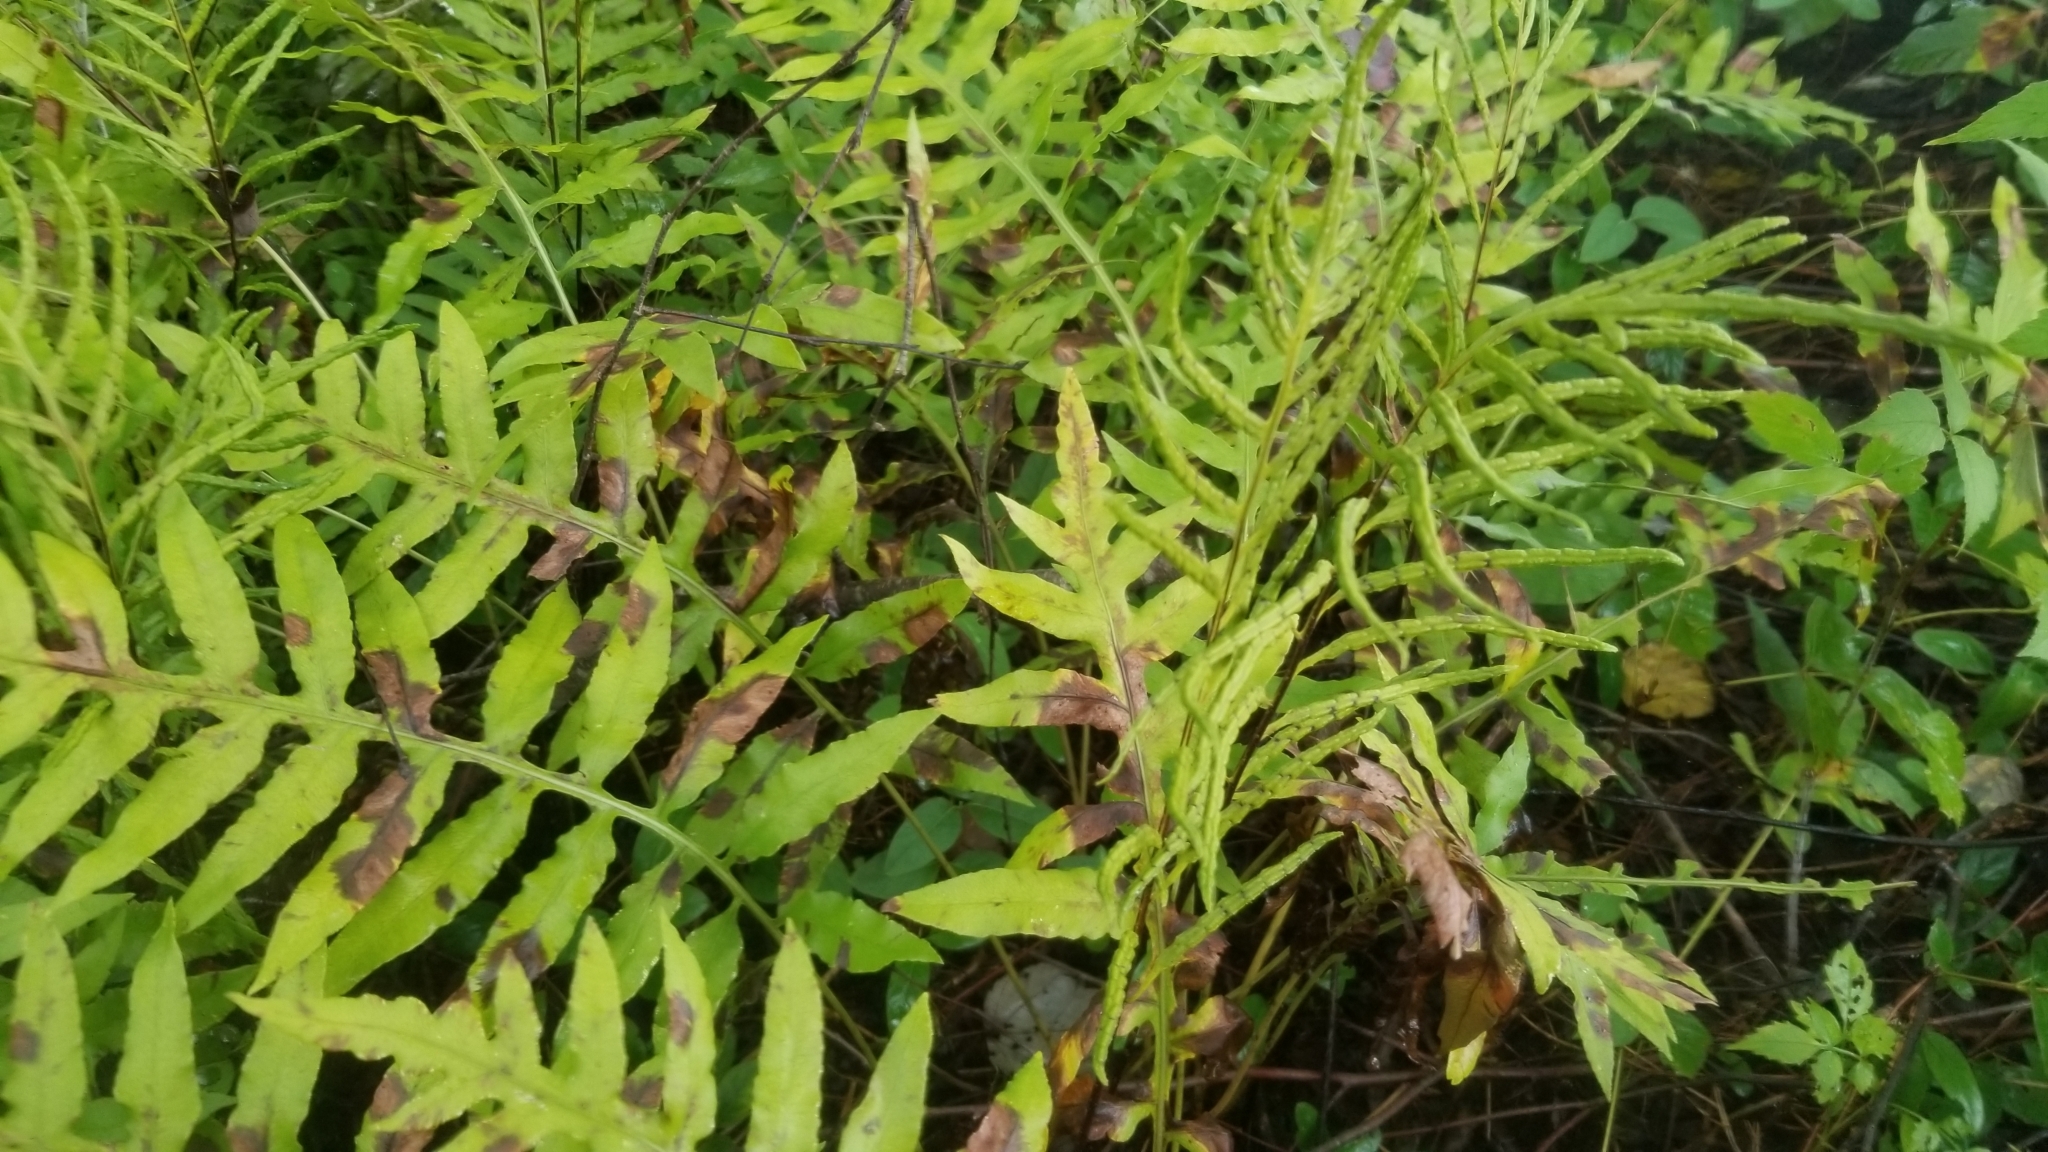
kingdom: Plantae
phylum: Tracheophyta
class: Polypodiopsida
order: Polypodiales
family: Blechnaceae
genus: Lorinseria
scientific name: Lorinseria areolata
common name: Dwarf chain fern
